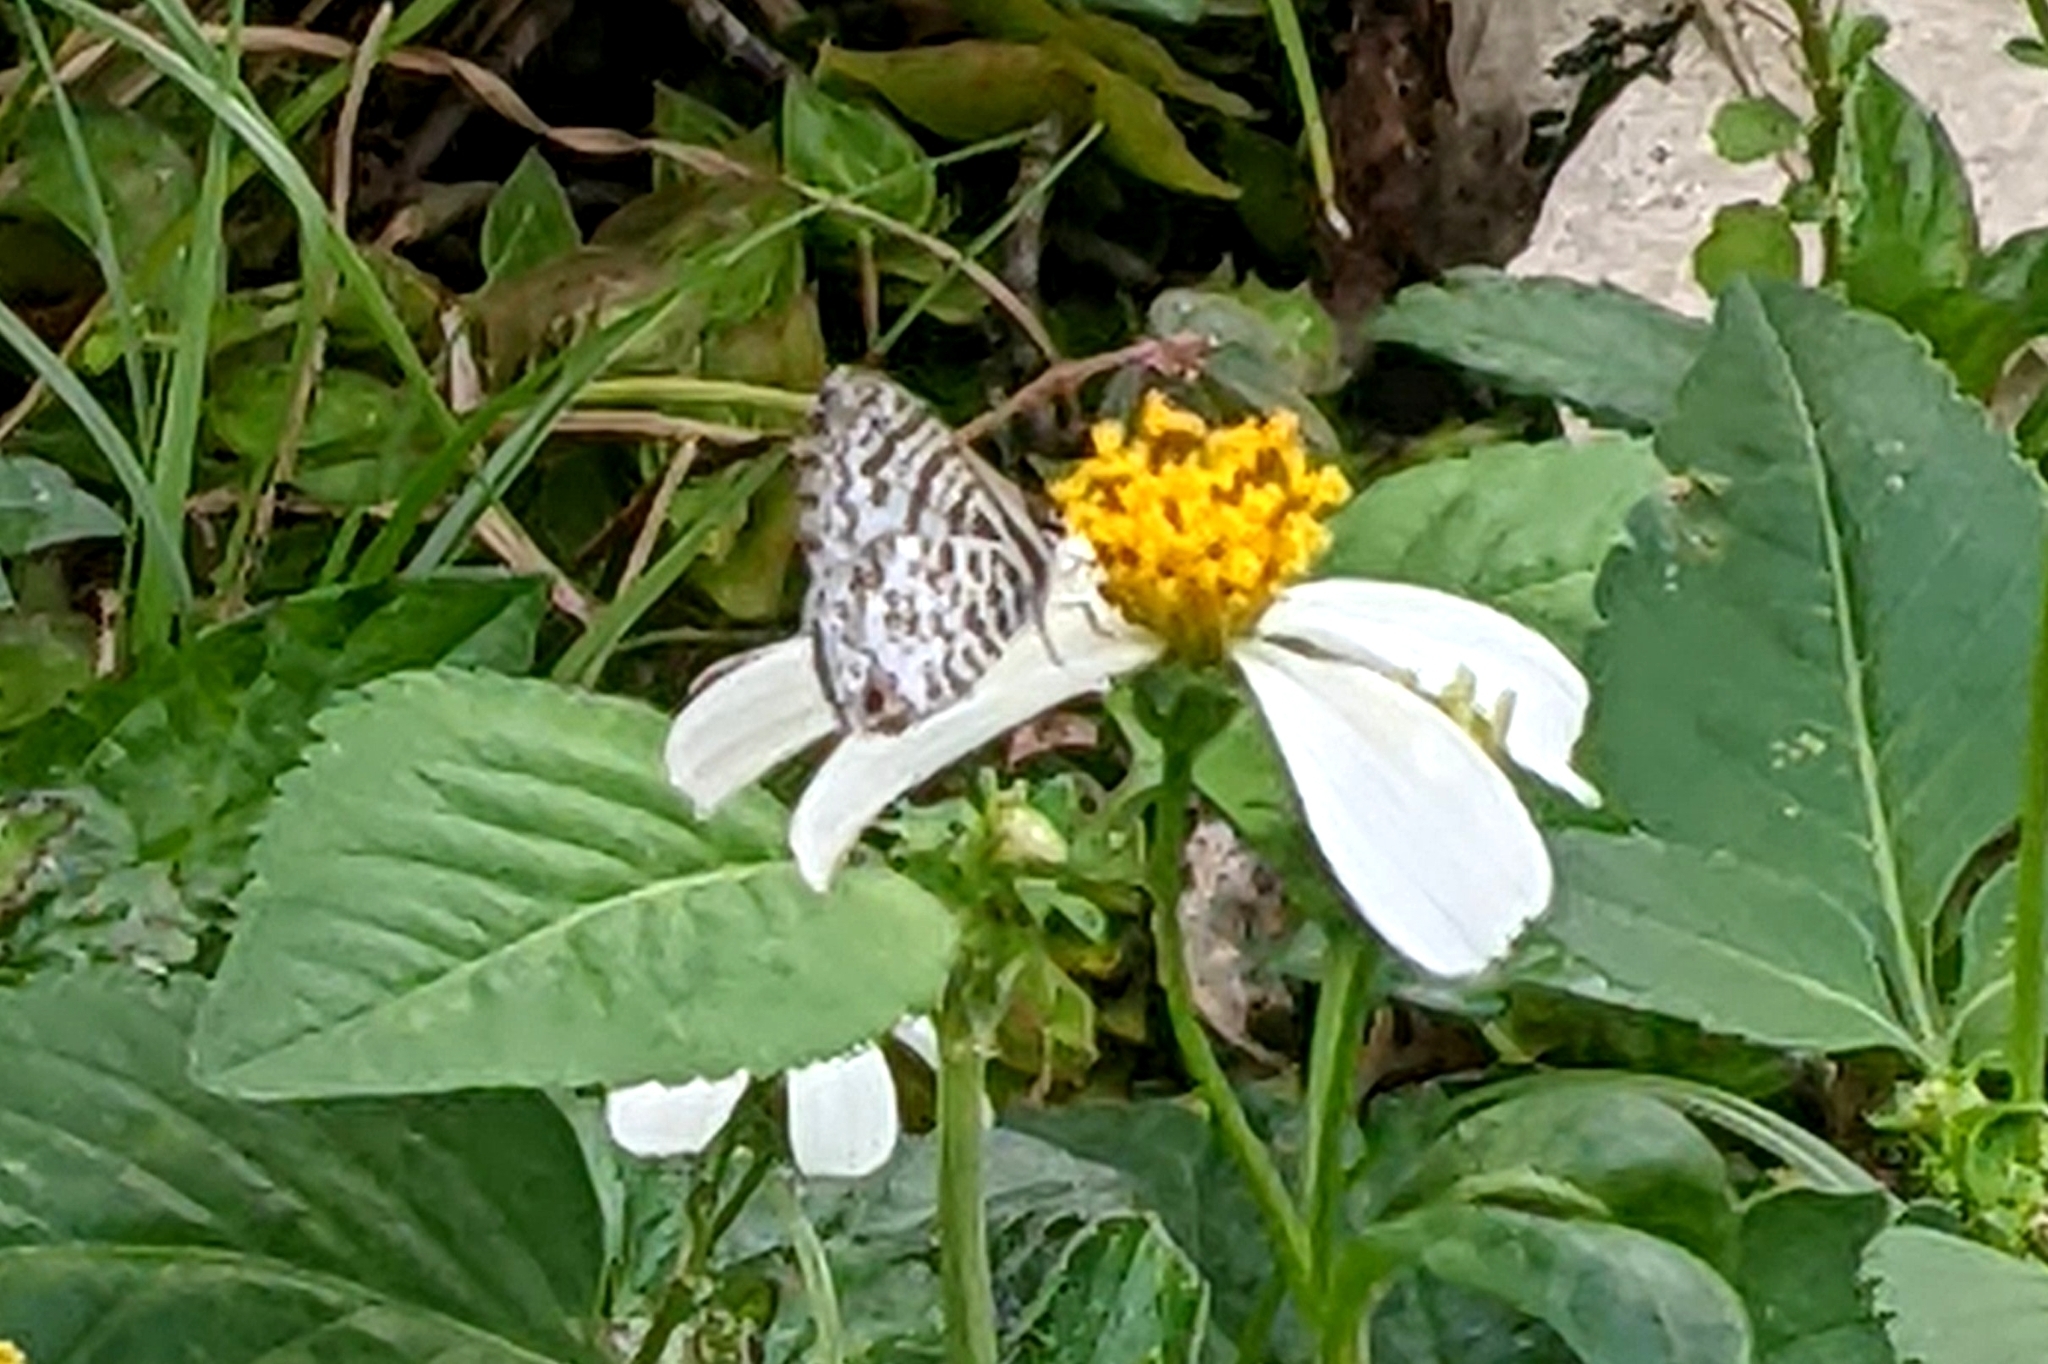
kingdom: Animalia
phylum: Arthropoda
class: Insecta
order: Lepidoptera
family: Lycaenidae
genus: Leptotes
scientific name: Leptotes cassius
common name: Cassius blue
